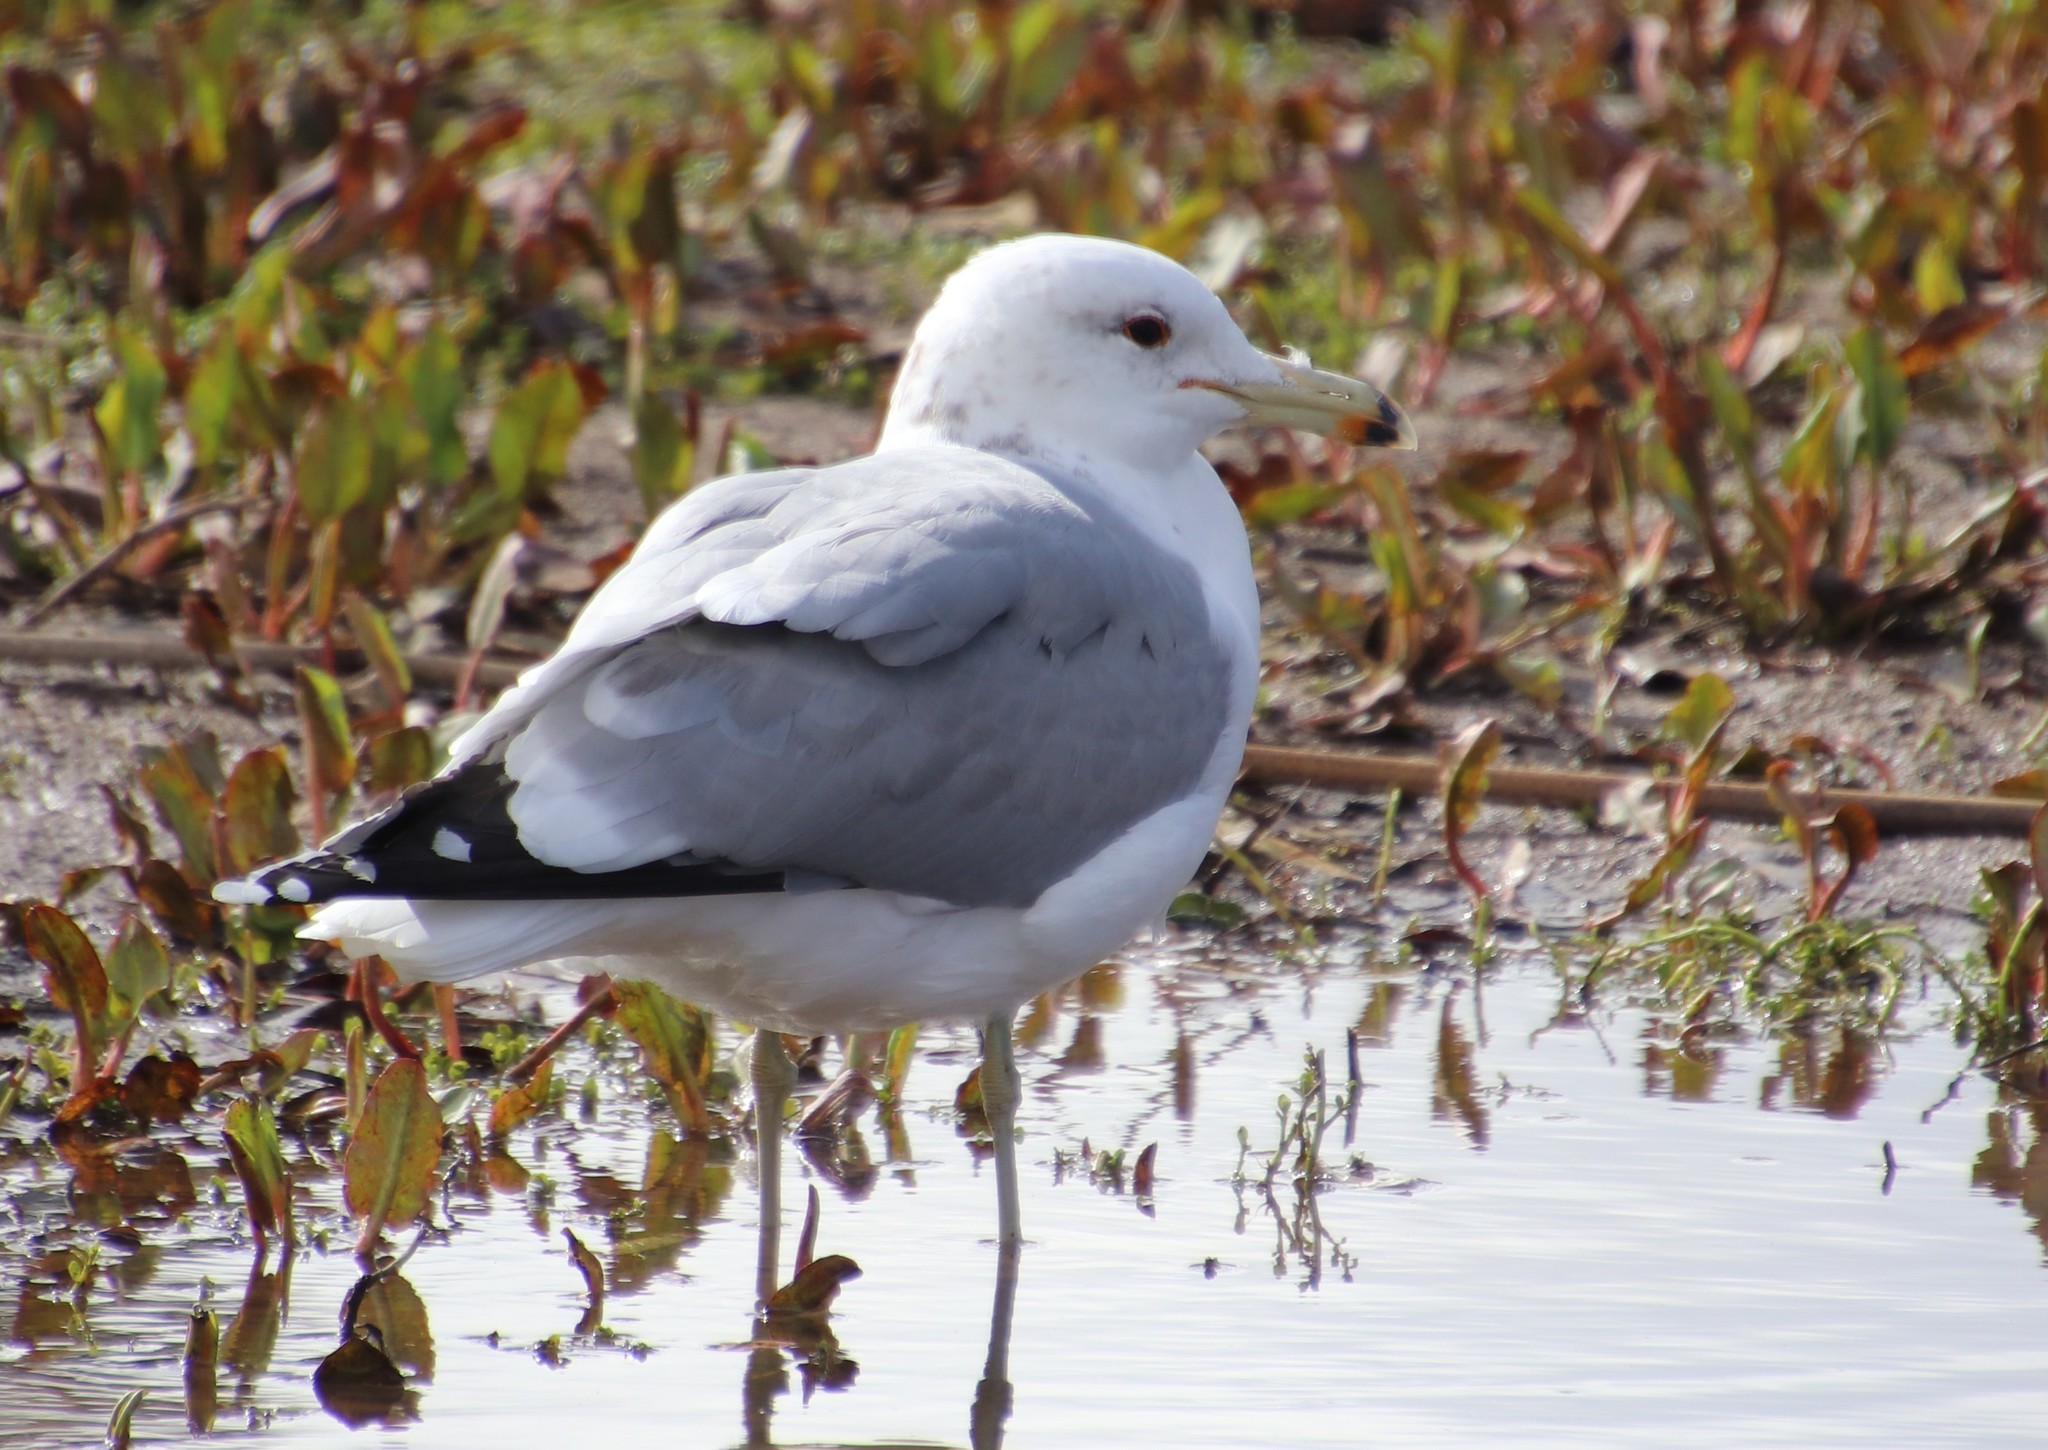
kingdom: Animalia
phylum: Chordata
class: Aves
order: Charadriiformes
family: Laridae
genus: Larus
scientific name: Larus californicus
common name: California gull
